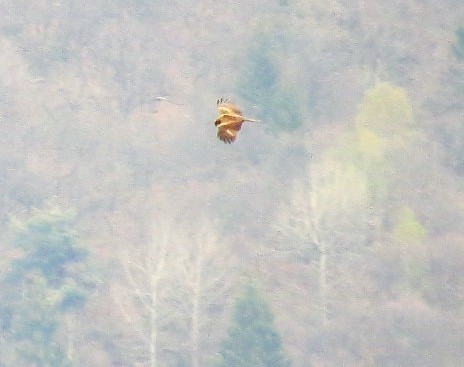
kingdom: Animalia
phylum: Chordata
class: Aves
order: Accipitriformes
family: Accipitridae
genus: Milvus
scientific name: Milvus migrans
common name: Black kite
